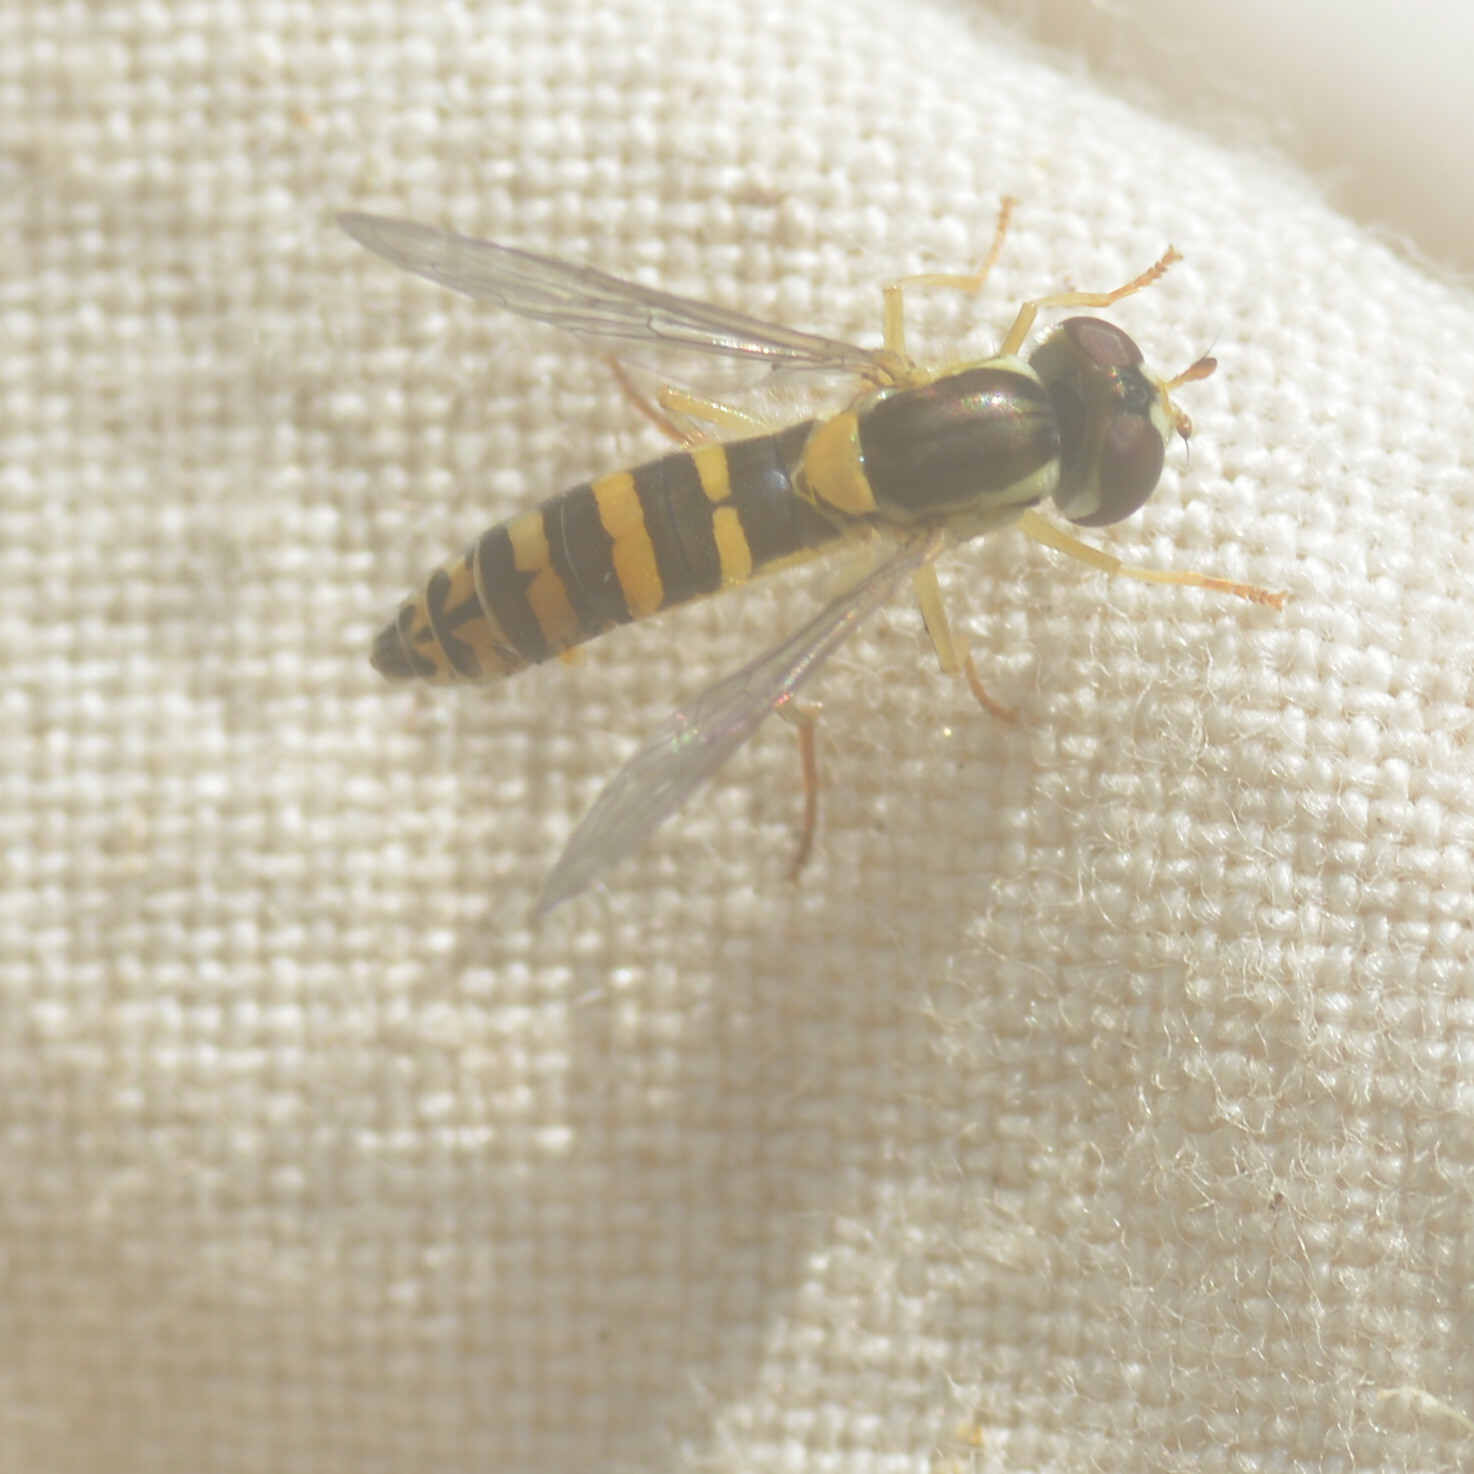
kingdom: Animalia
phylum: Arthropoda
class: Insecta
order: Diptera
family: Syrphidae
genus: Sphaerophoria
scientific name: Sphaerophoria
